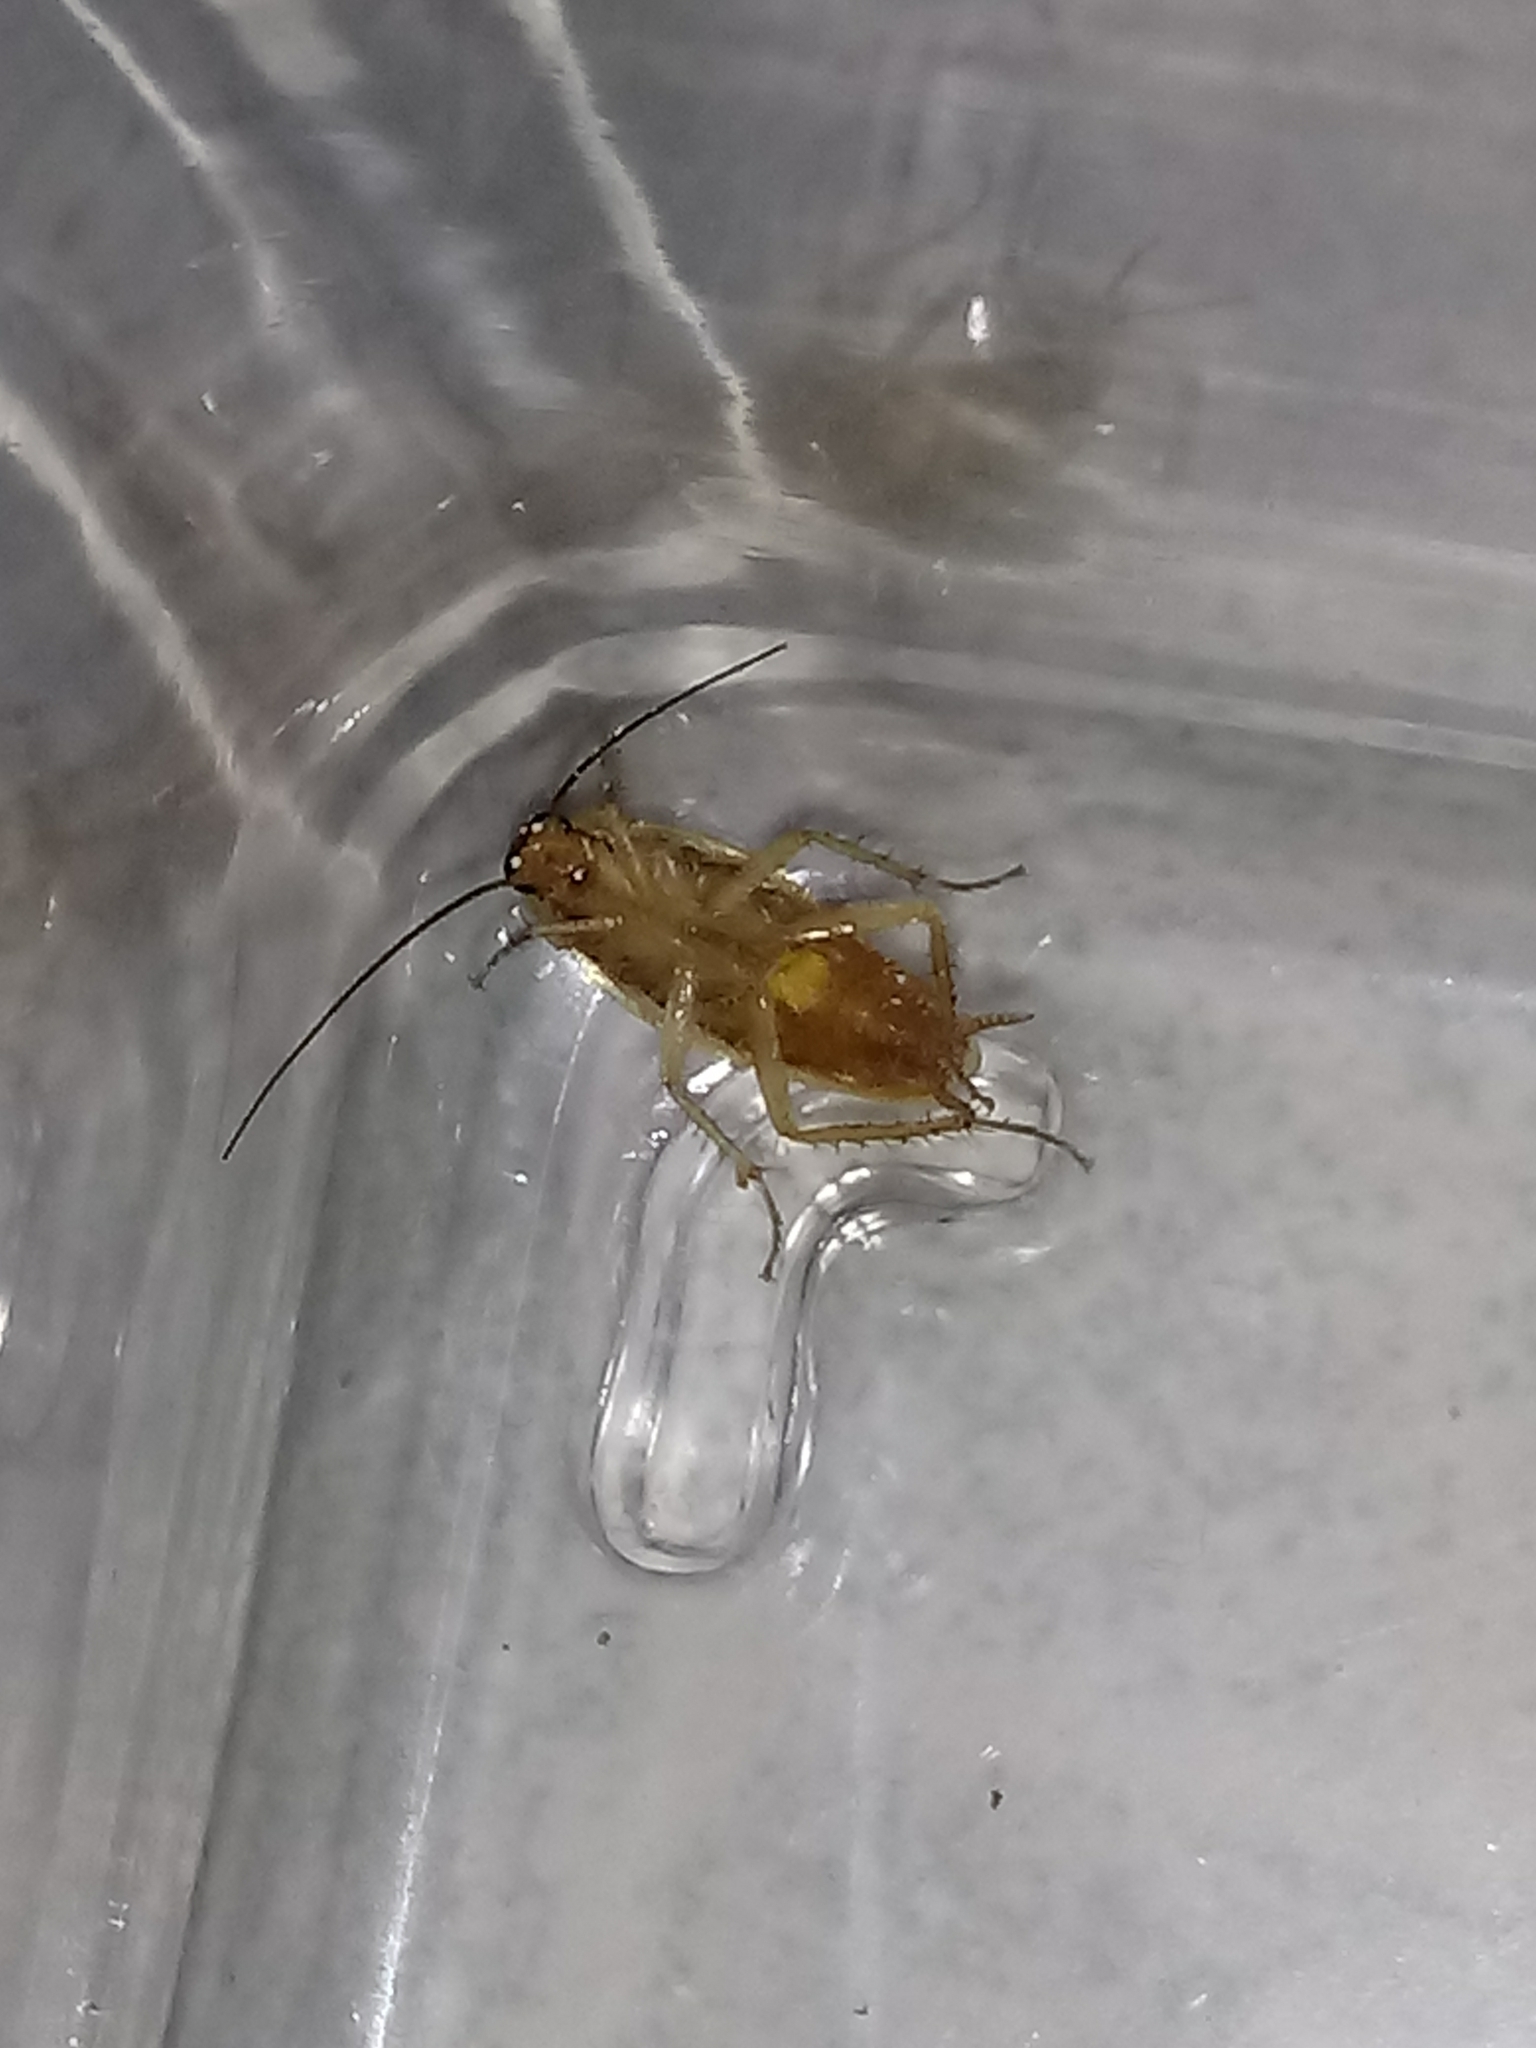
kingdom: Animalia
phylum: Arthropoda
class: Insecta
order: Blattodea
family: Ectobiidae
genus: Blattella
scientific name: Blattella germanica
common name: German cockroach
